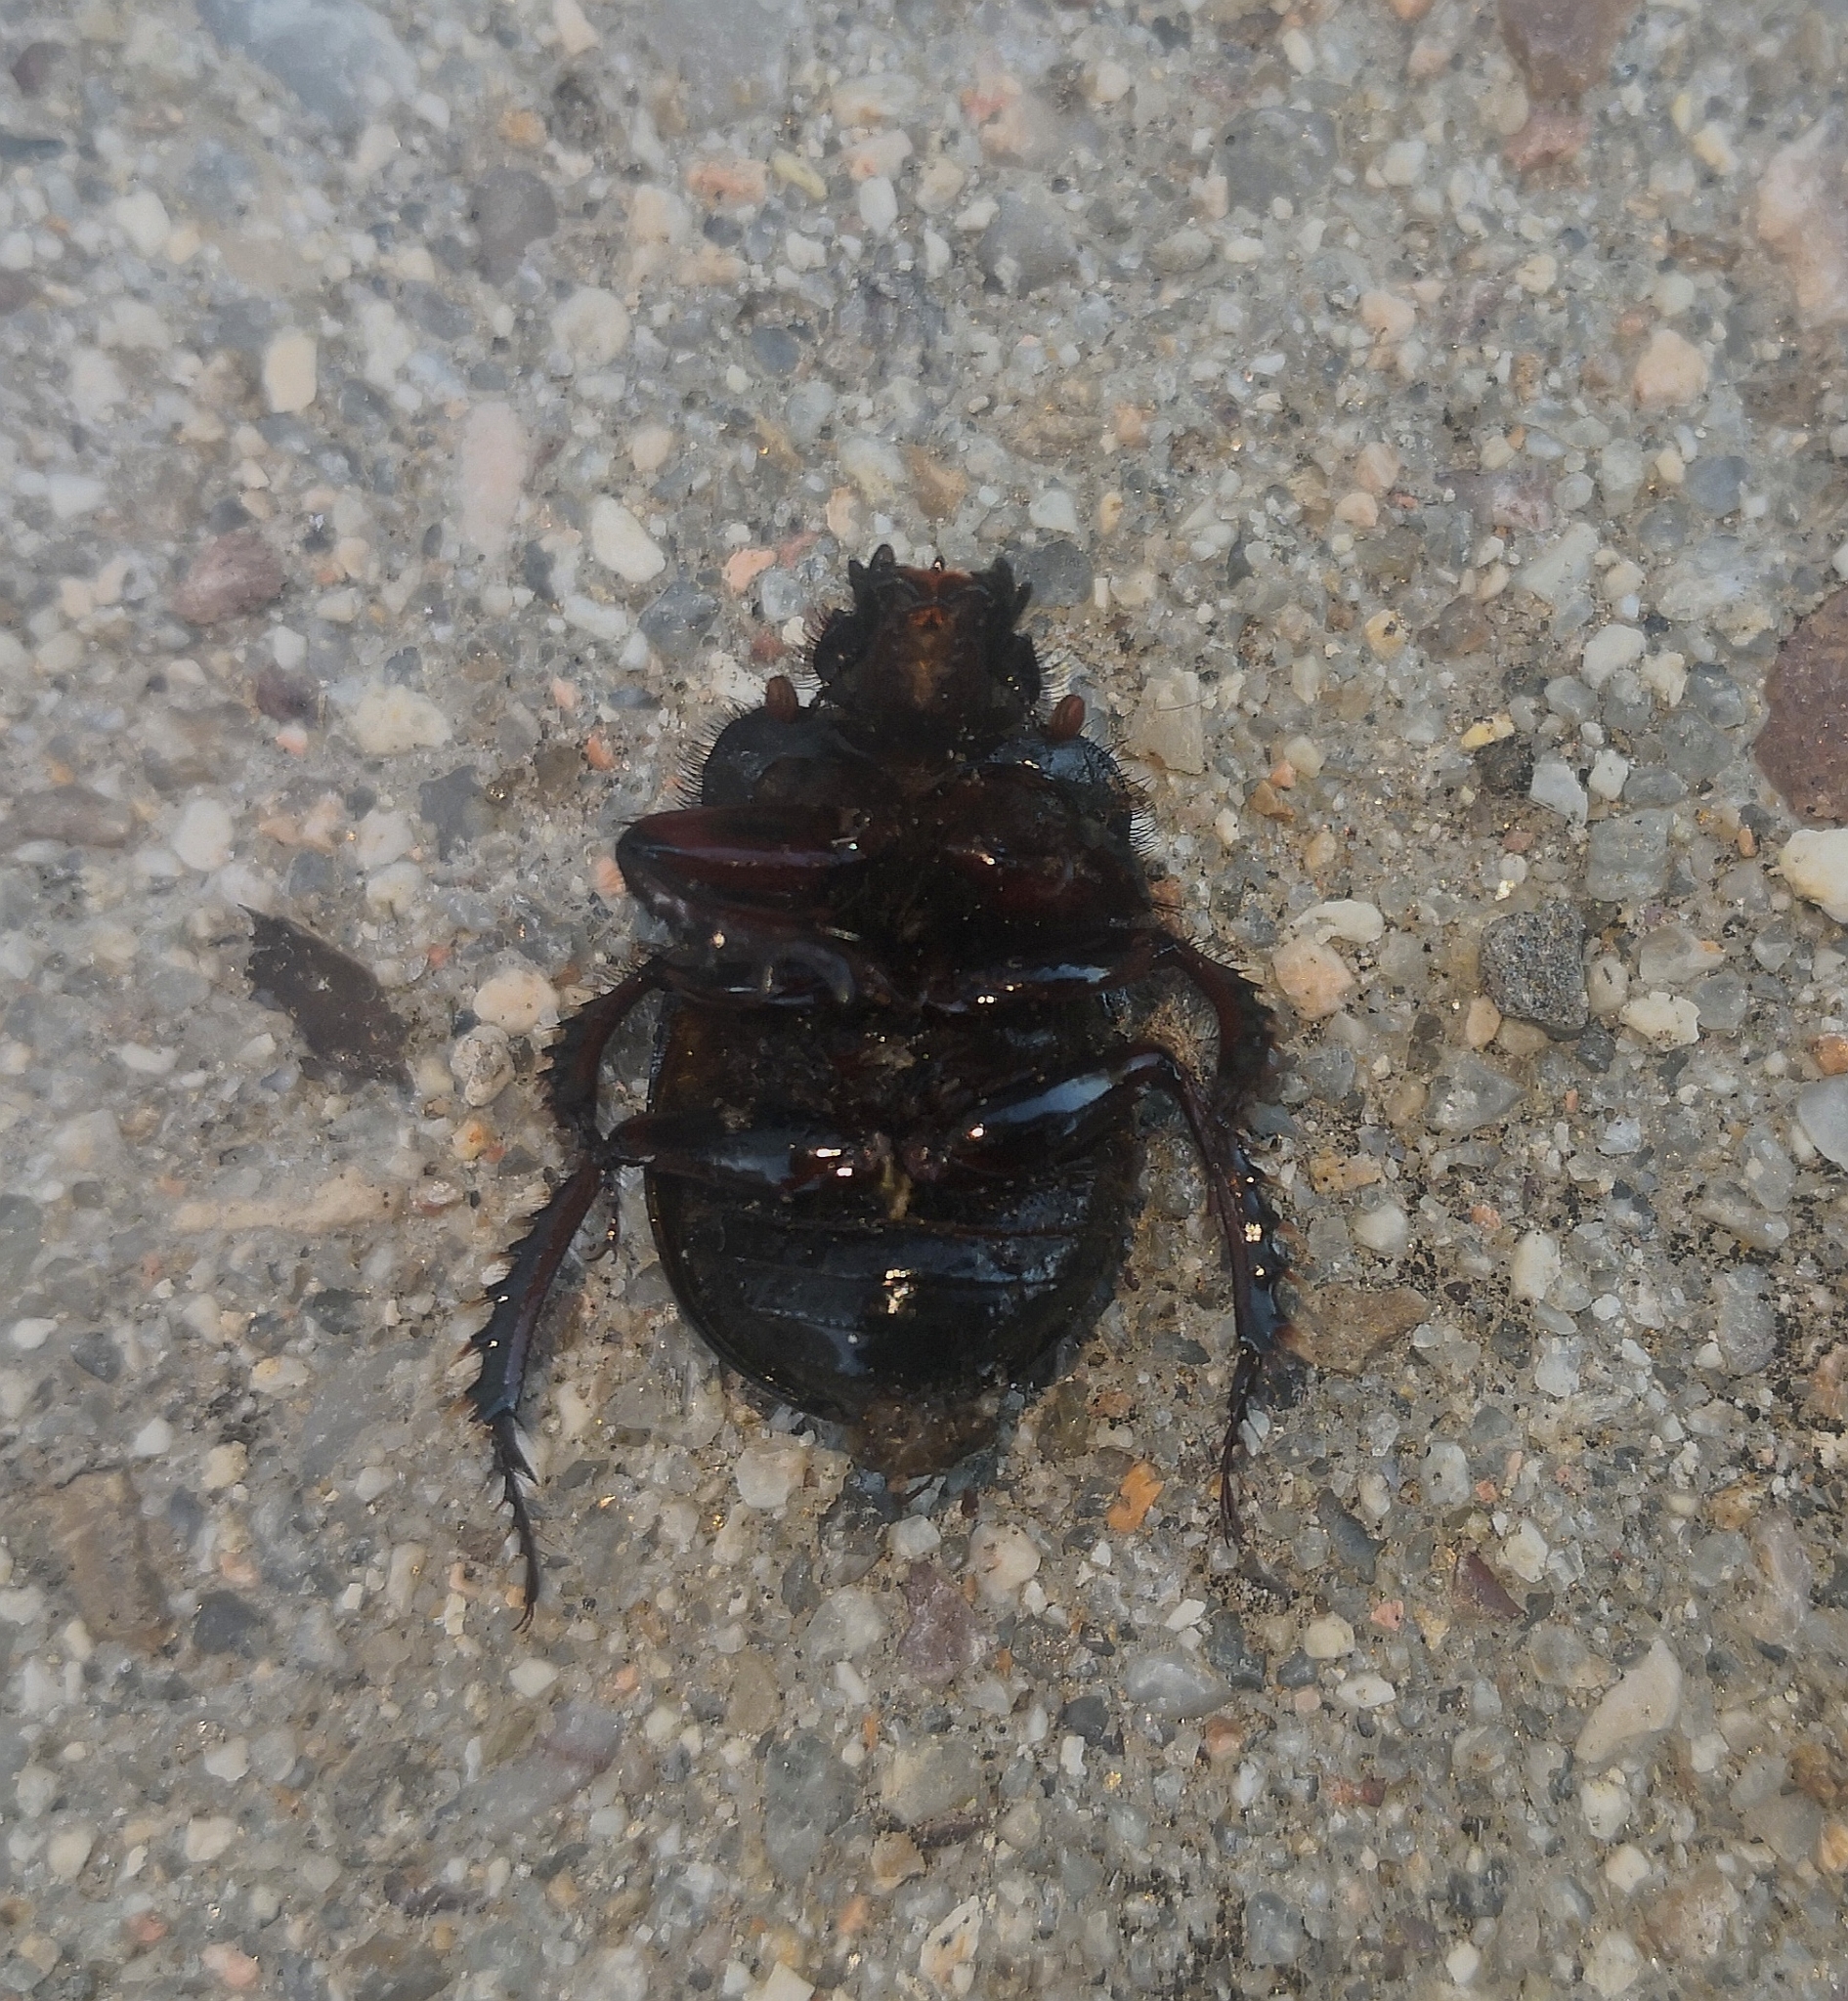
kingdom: Animalia
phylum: Arthropoda
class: Insecta
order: Coleoptera
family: Geotrupidae
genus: Ceratophyus
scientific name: Ceratophyus hoffmannseggi
